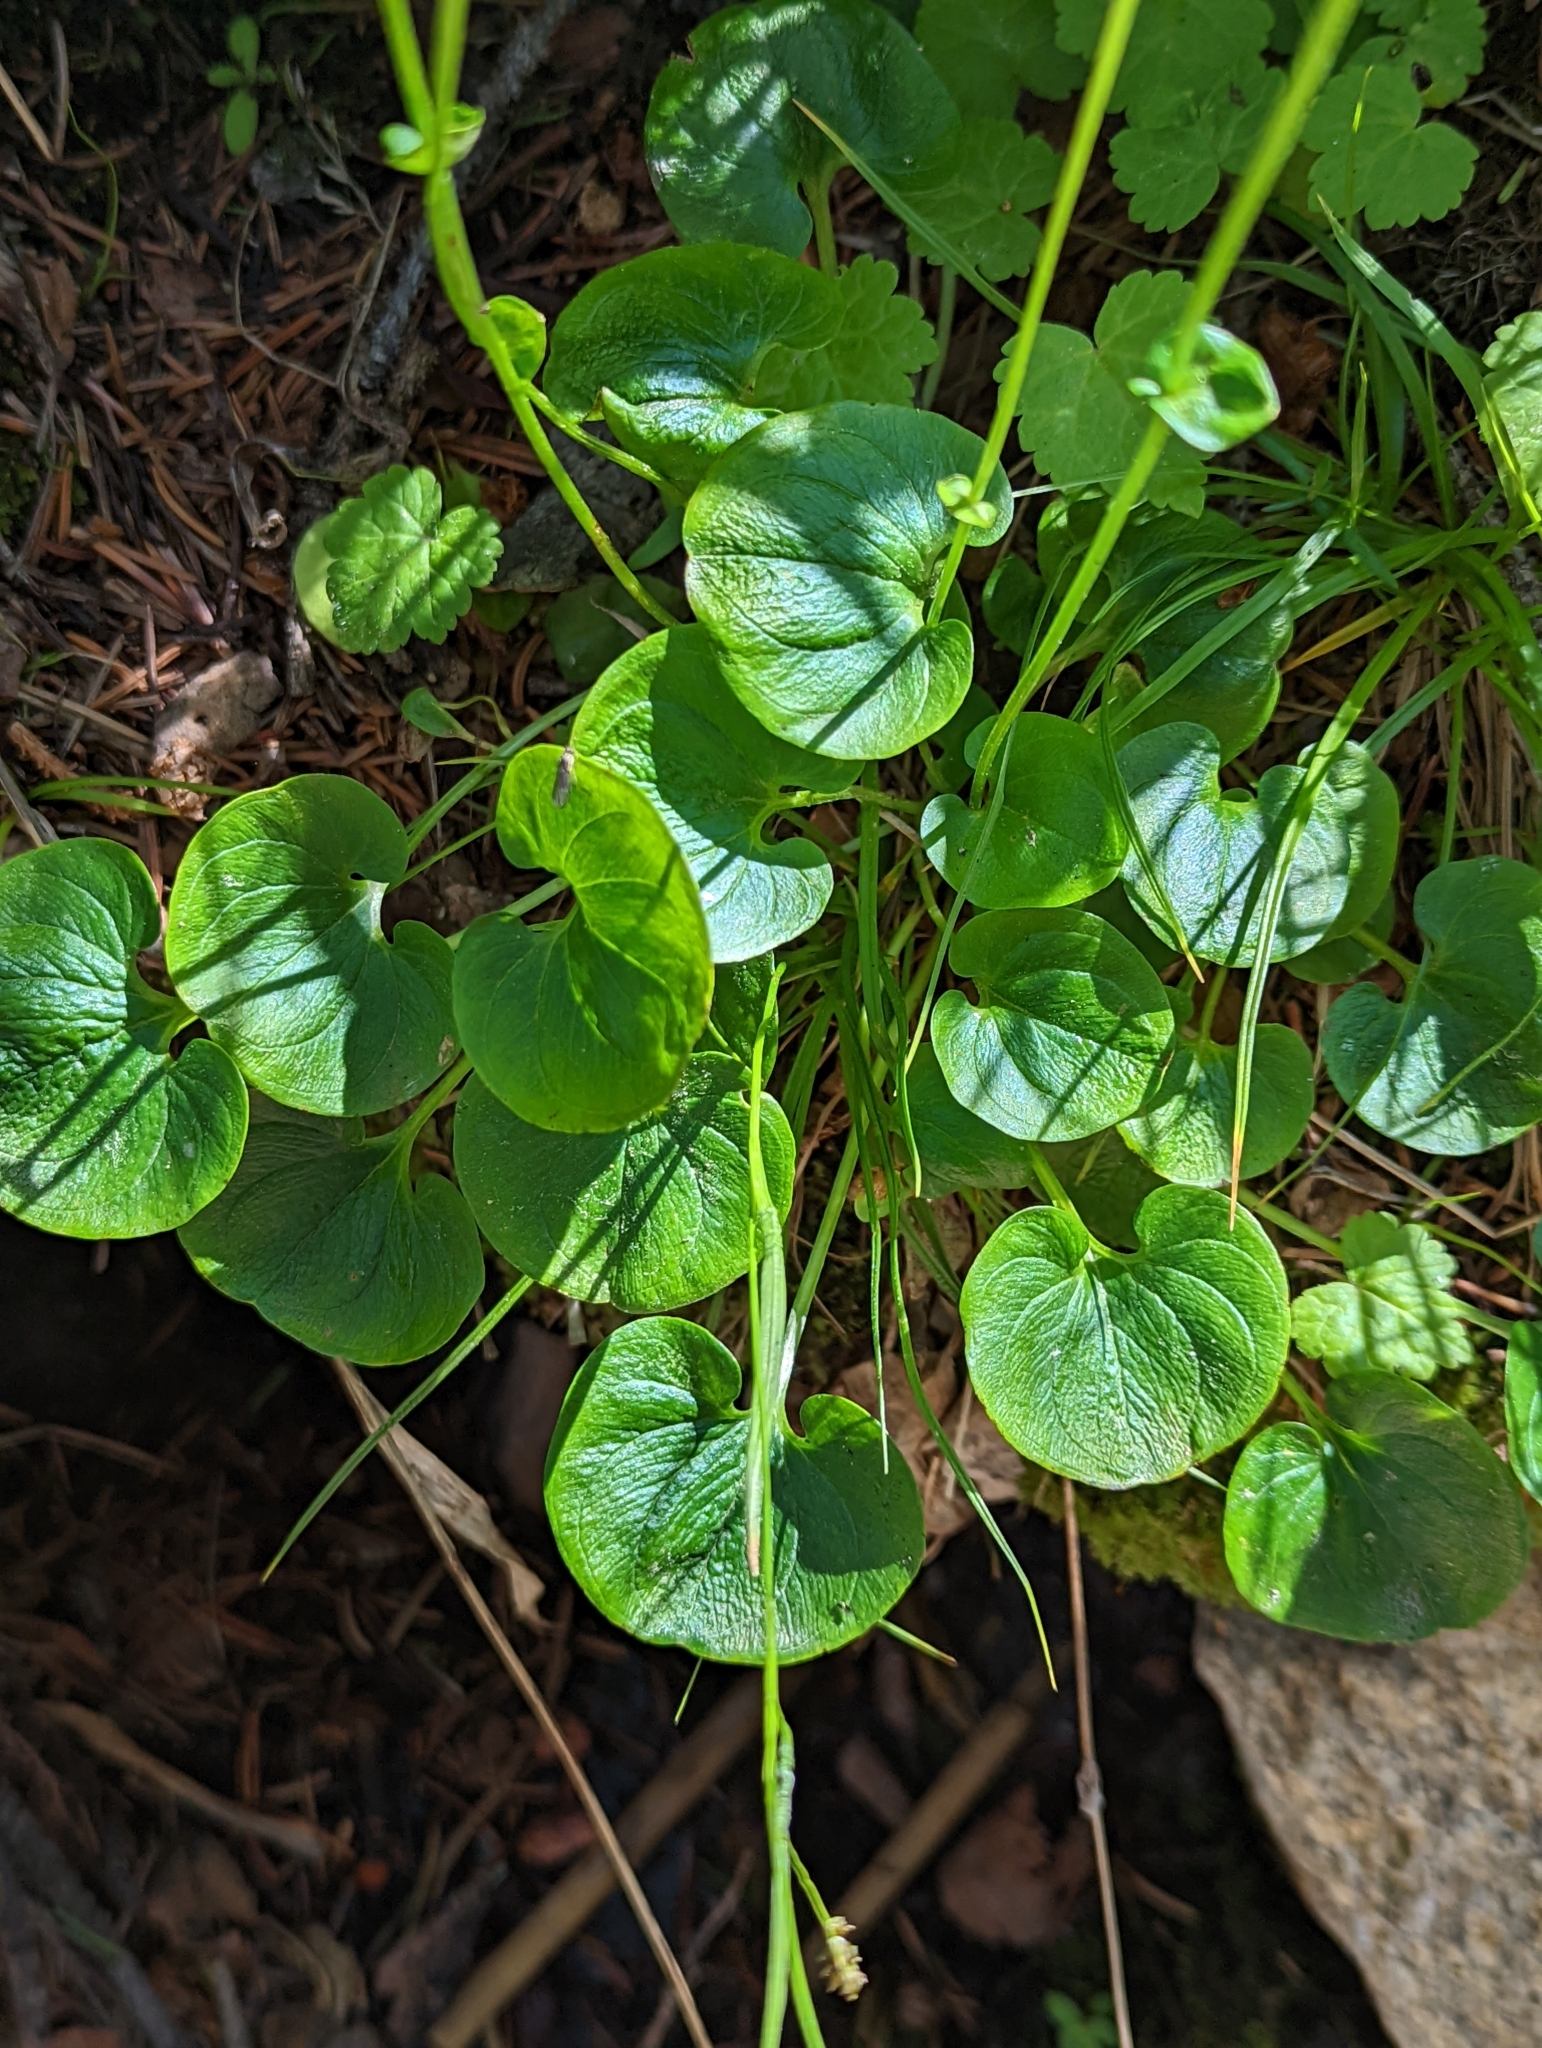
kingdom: Plantae
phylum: Tracheophyta
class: Magnoliopsida
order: Celastrales
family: Parnassiaceae
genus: Parnassia
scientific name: Parnassia fimbriata
